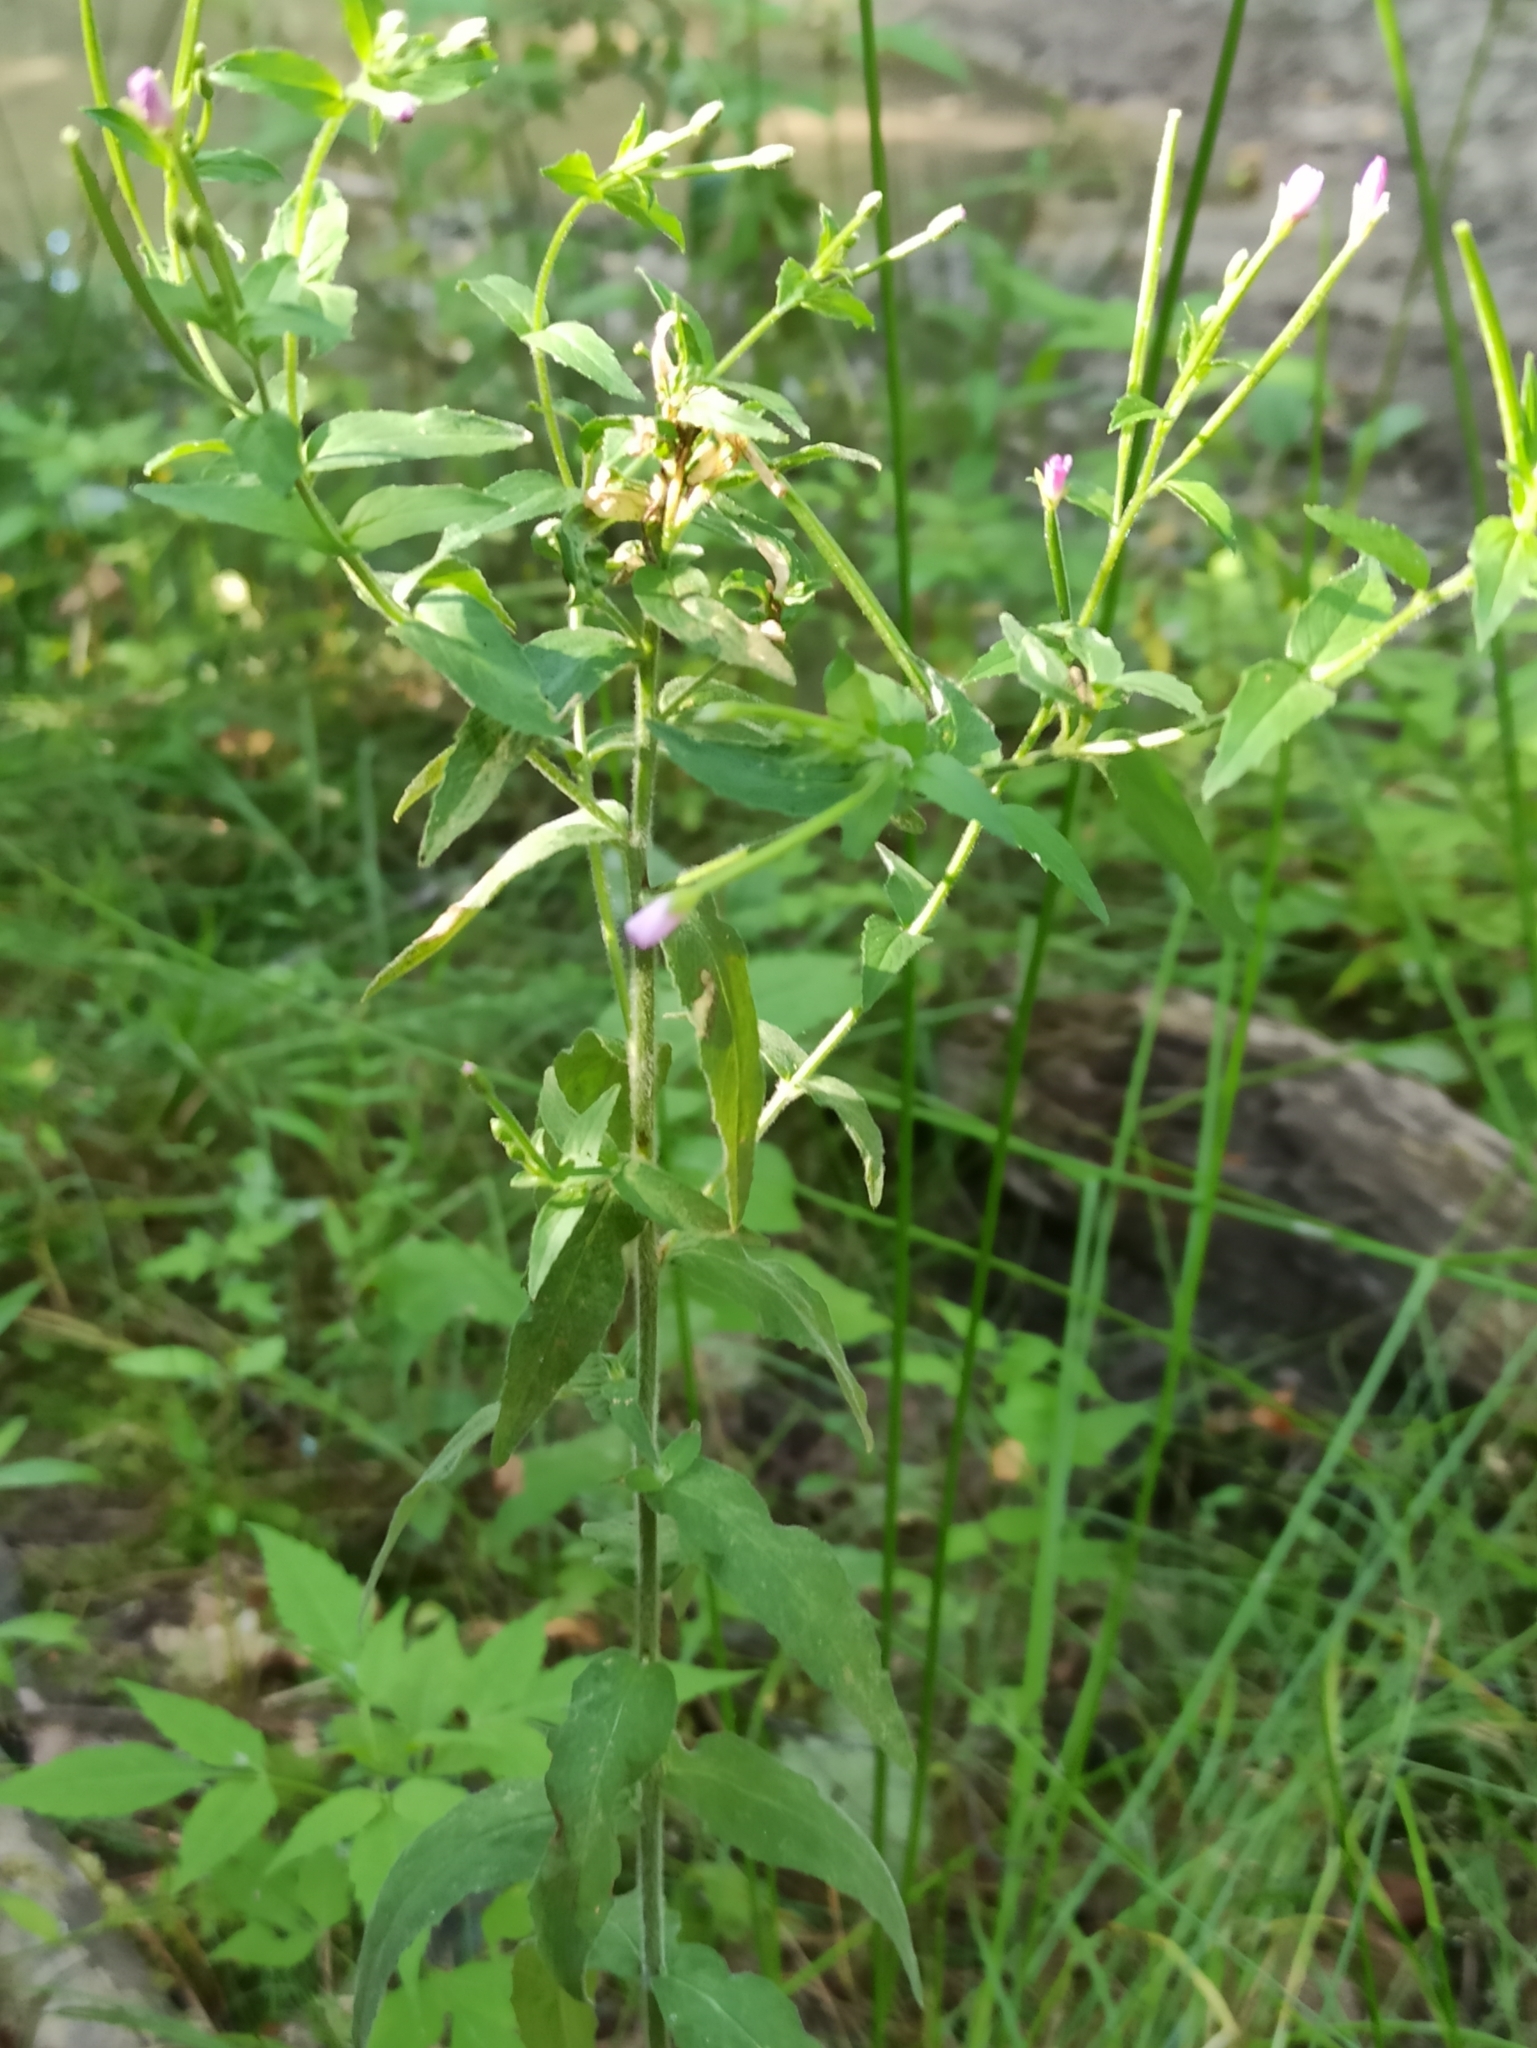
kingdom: Plantae
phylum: Tracheophyta
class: Magnoliopsida
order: Myrtales
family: Onagraceae
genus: Epilobium
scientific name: Epilobium parviflorum
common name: Hoary willowherb
